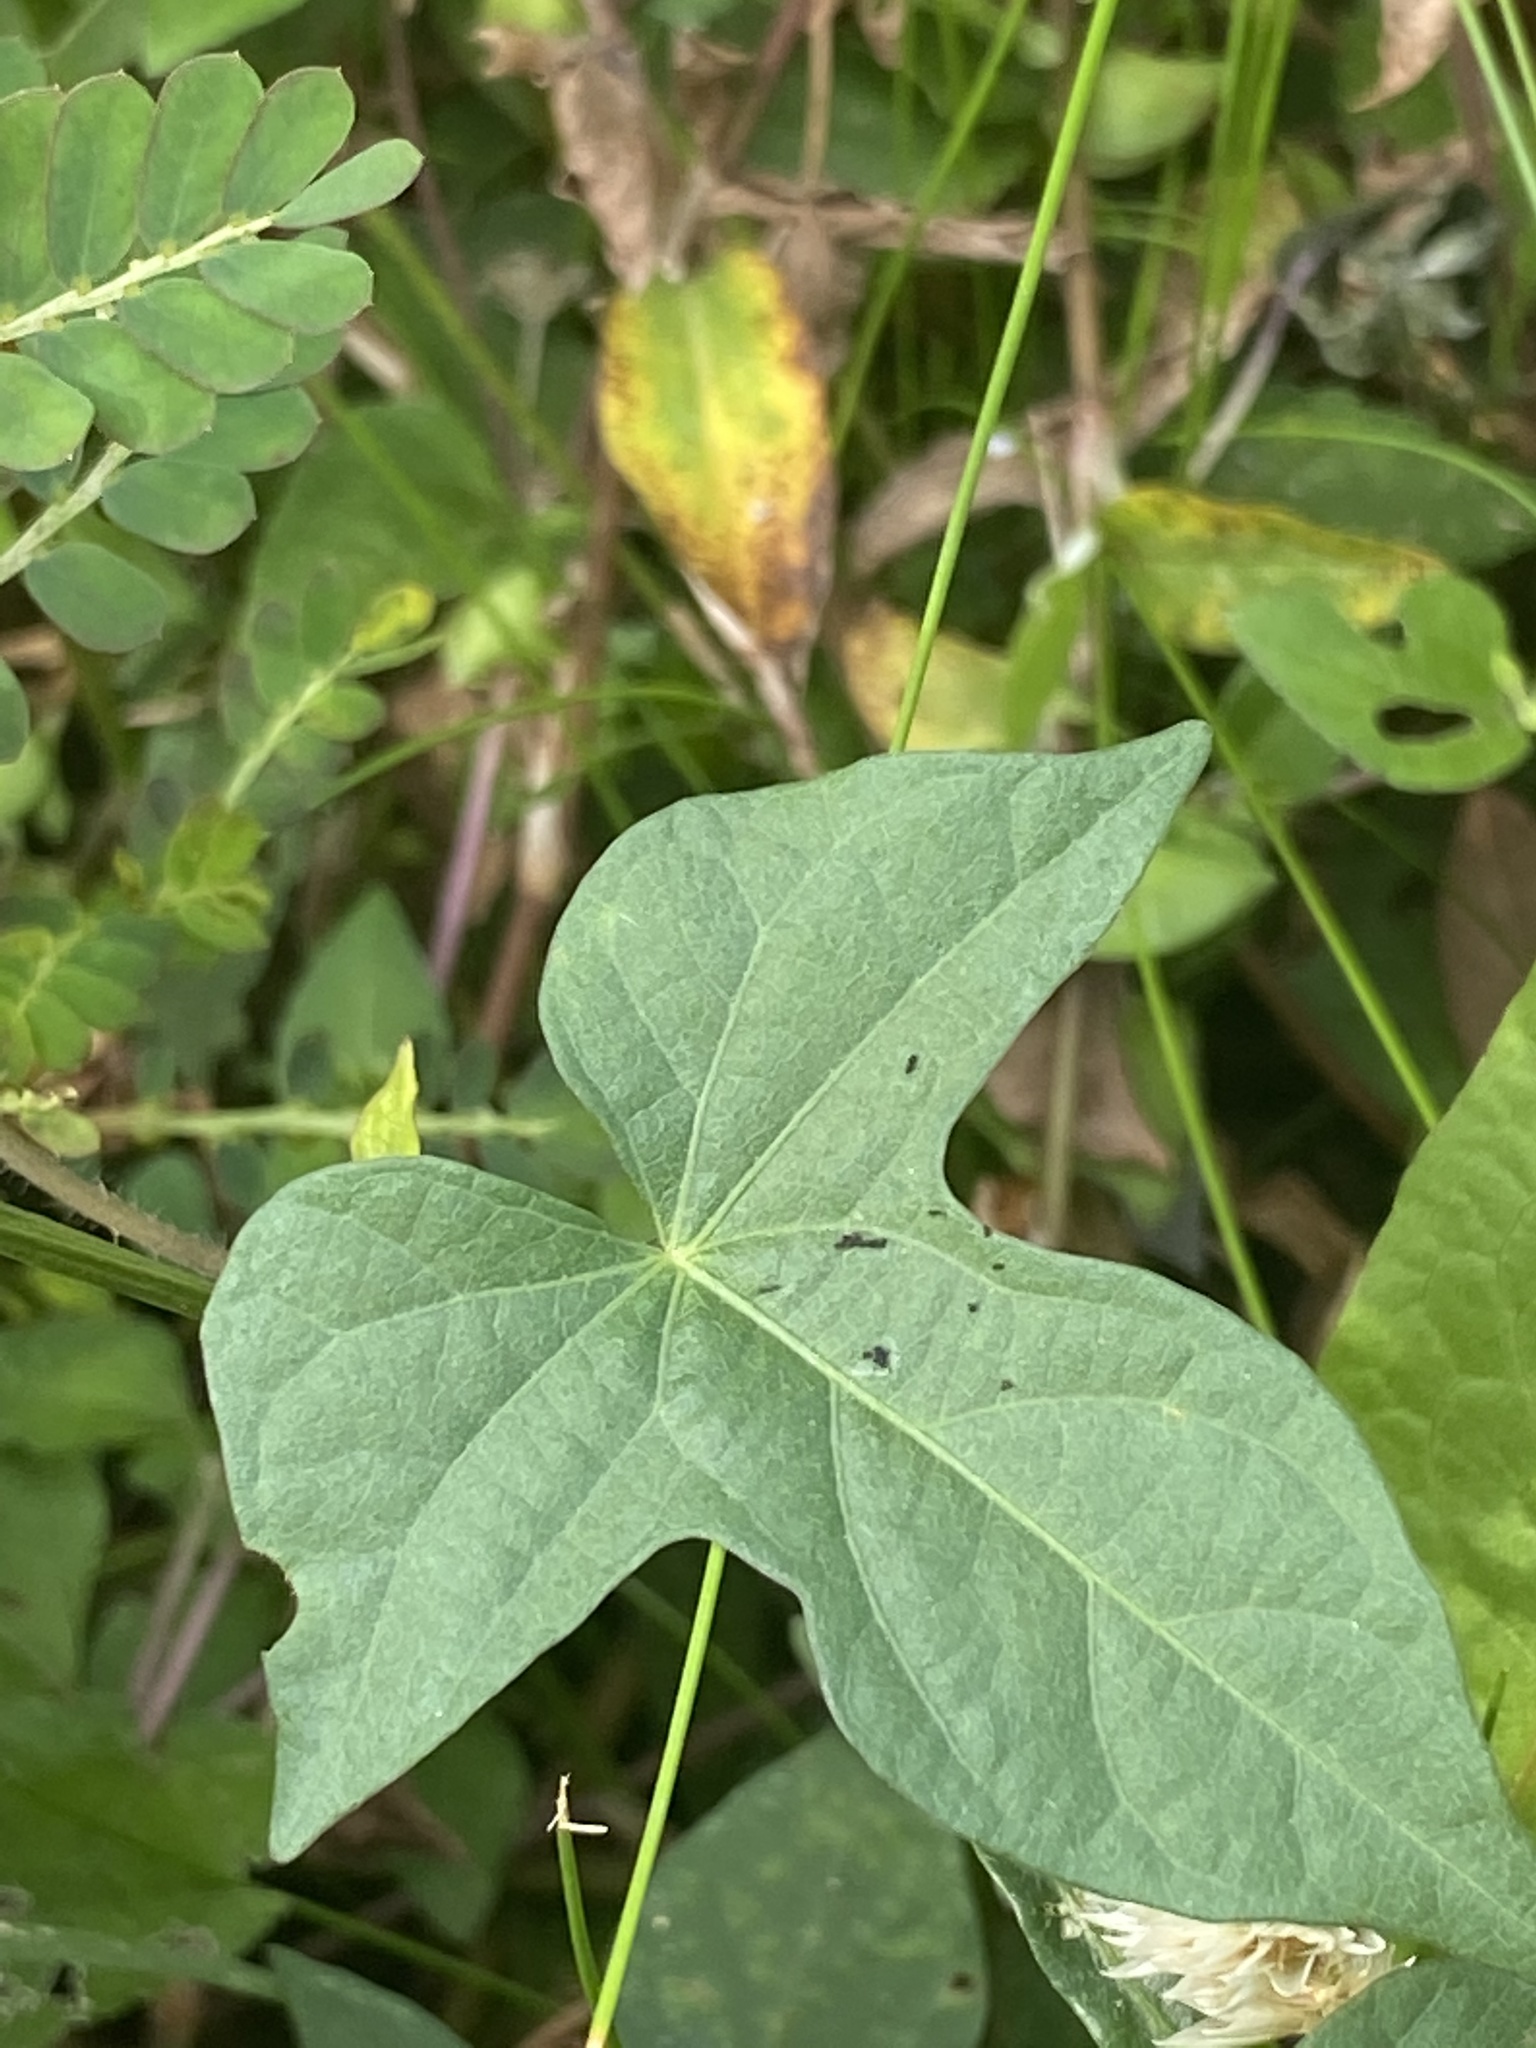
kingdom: Plantae
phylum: Tracheophyta
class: Magnoliopsida
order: Solanales
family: Convolvulaceae
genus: Ipomoea
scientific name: Ipomoea cordatotriloba
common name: Cotton morning glory
